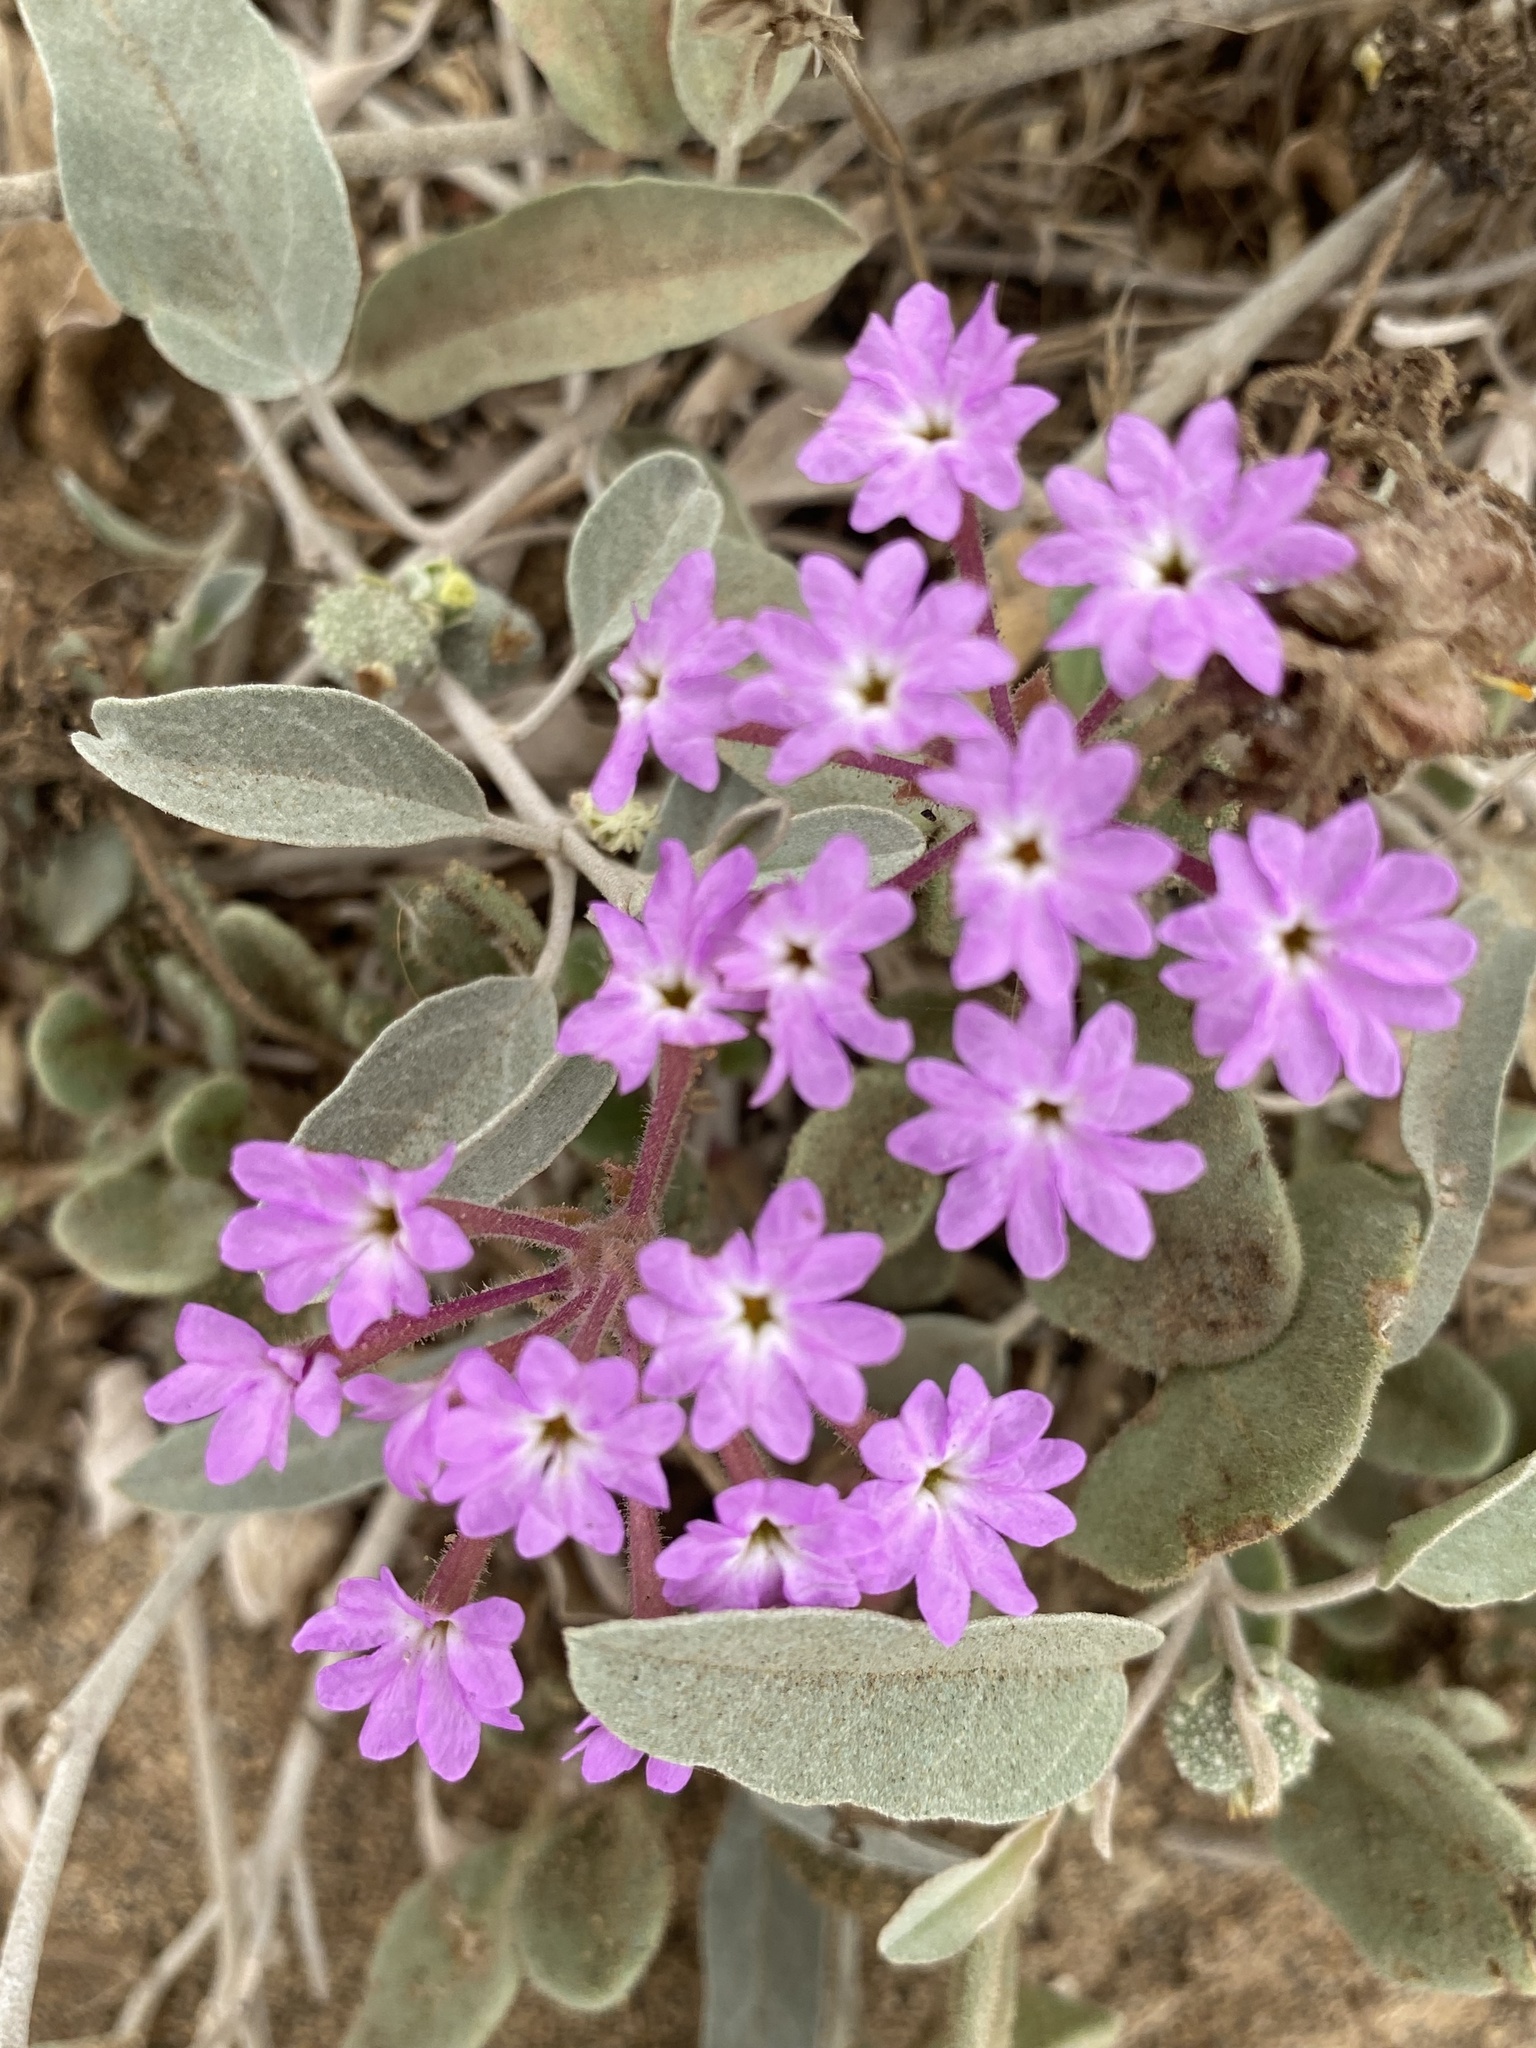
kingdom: Plantae
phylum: Tracheophyta
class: Magnoliopsida
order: Caryophyllales
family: Nyctaginaceae
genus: Abronia
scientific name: Abronia umbellata
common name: Sand-verbena
